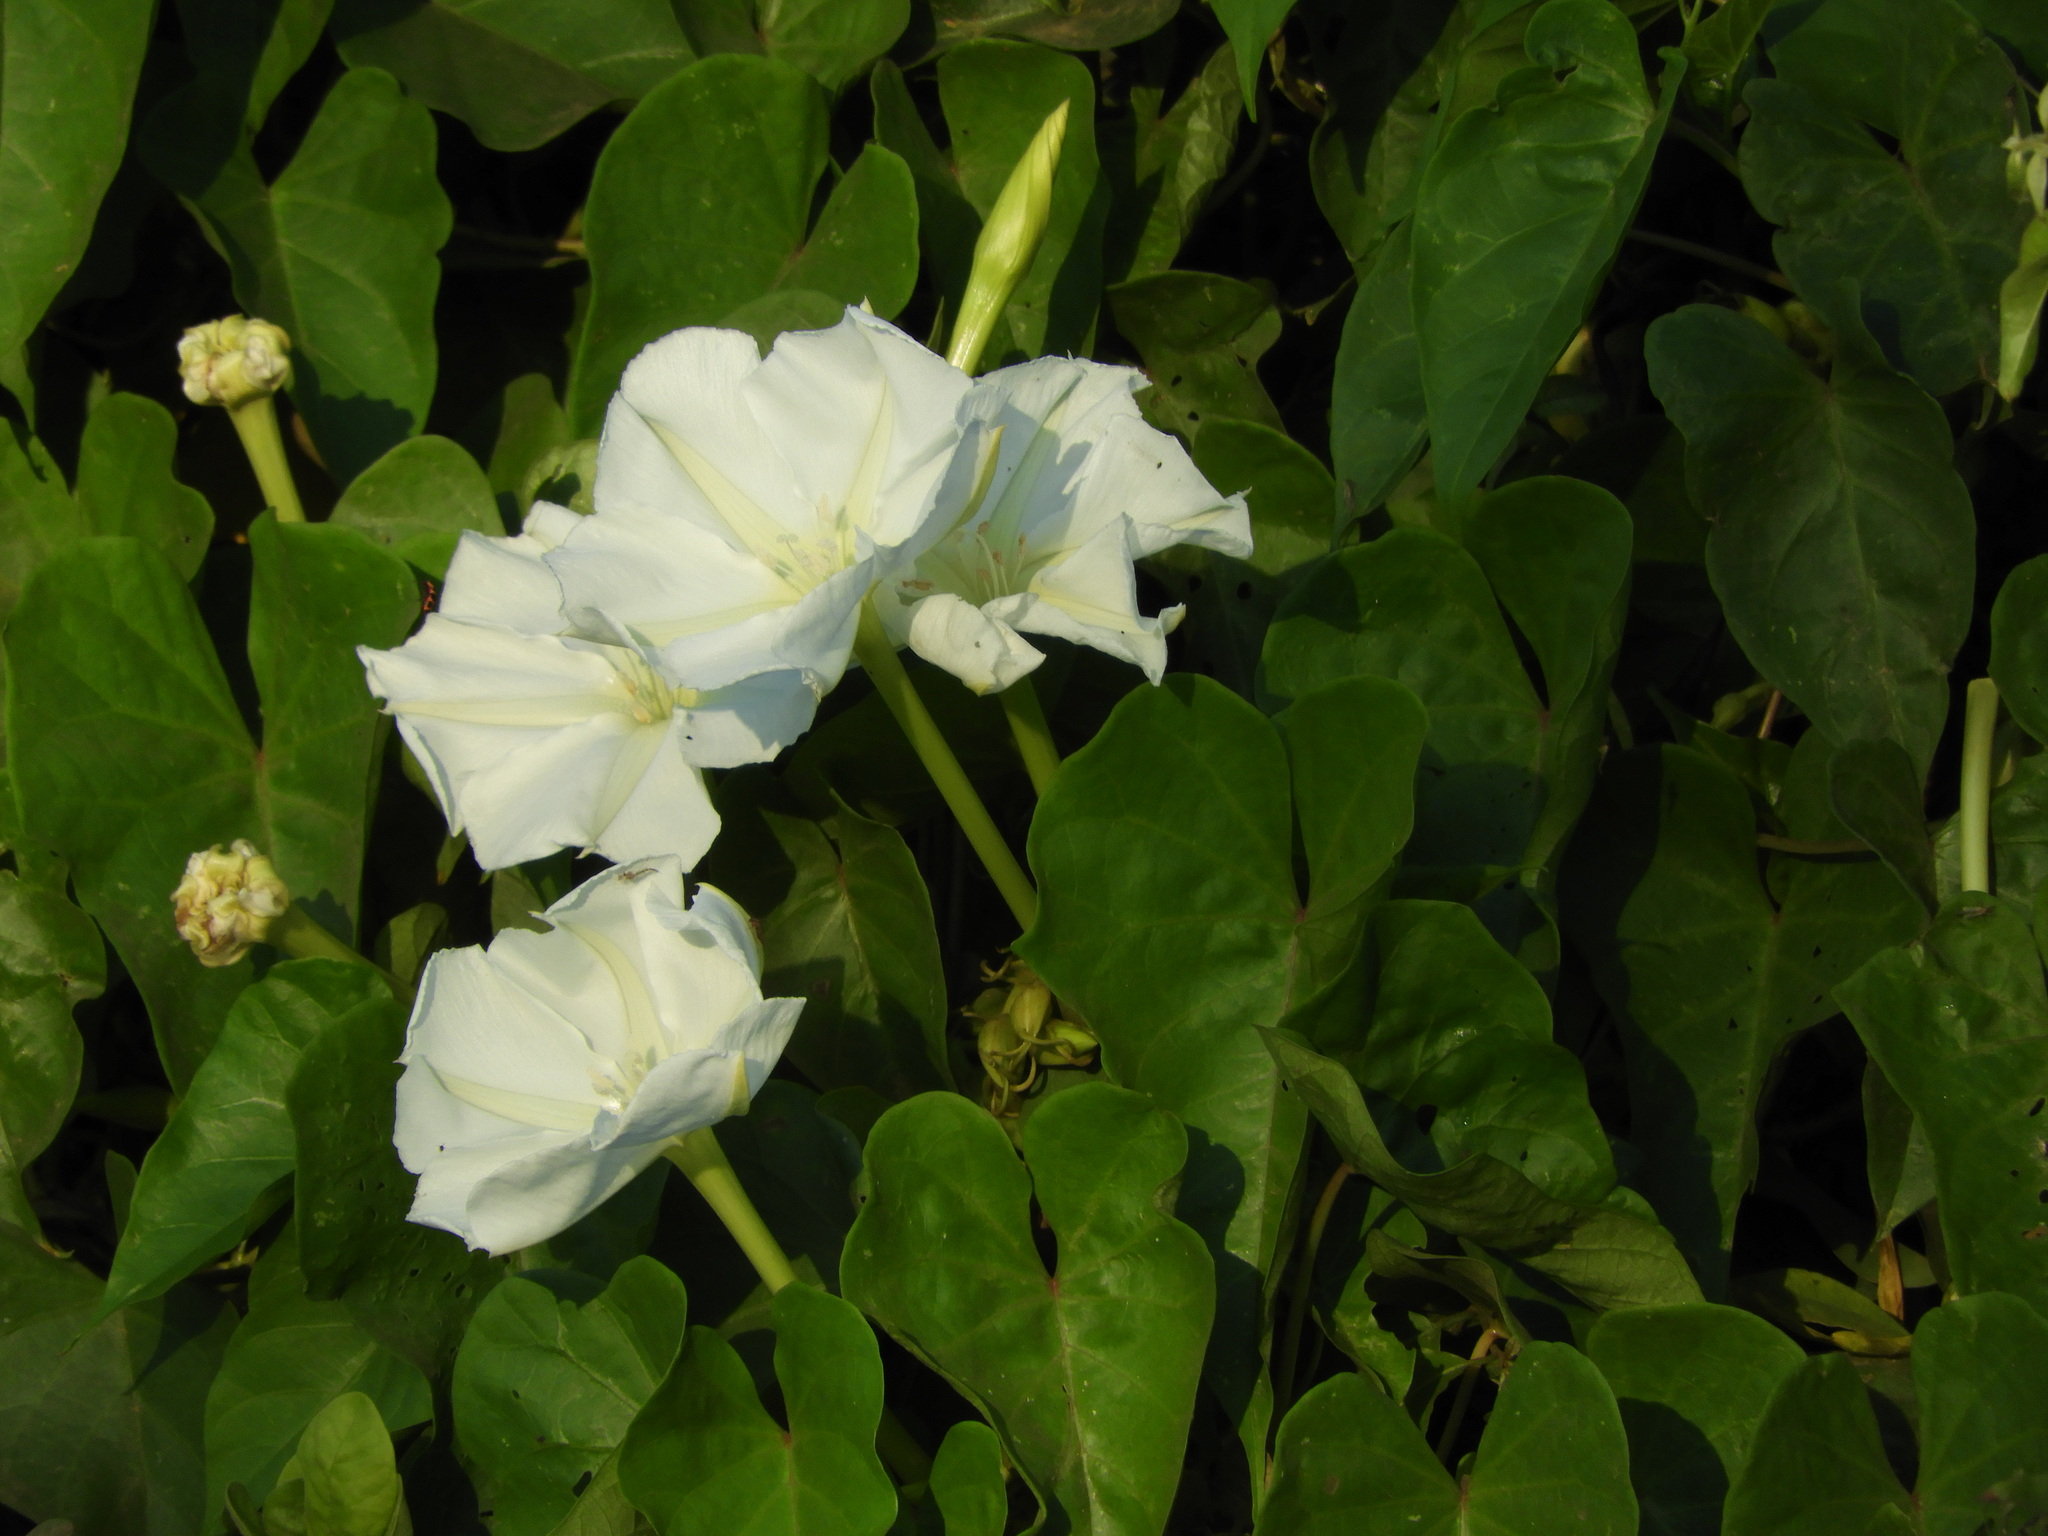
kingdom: Plantae
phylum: Tracheophyta
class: Magnoliopsida
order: Solanales
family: Convolvulaceae
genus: Ipomoea
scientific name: Ipomoea alba
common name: Moonflower
